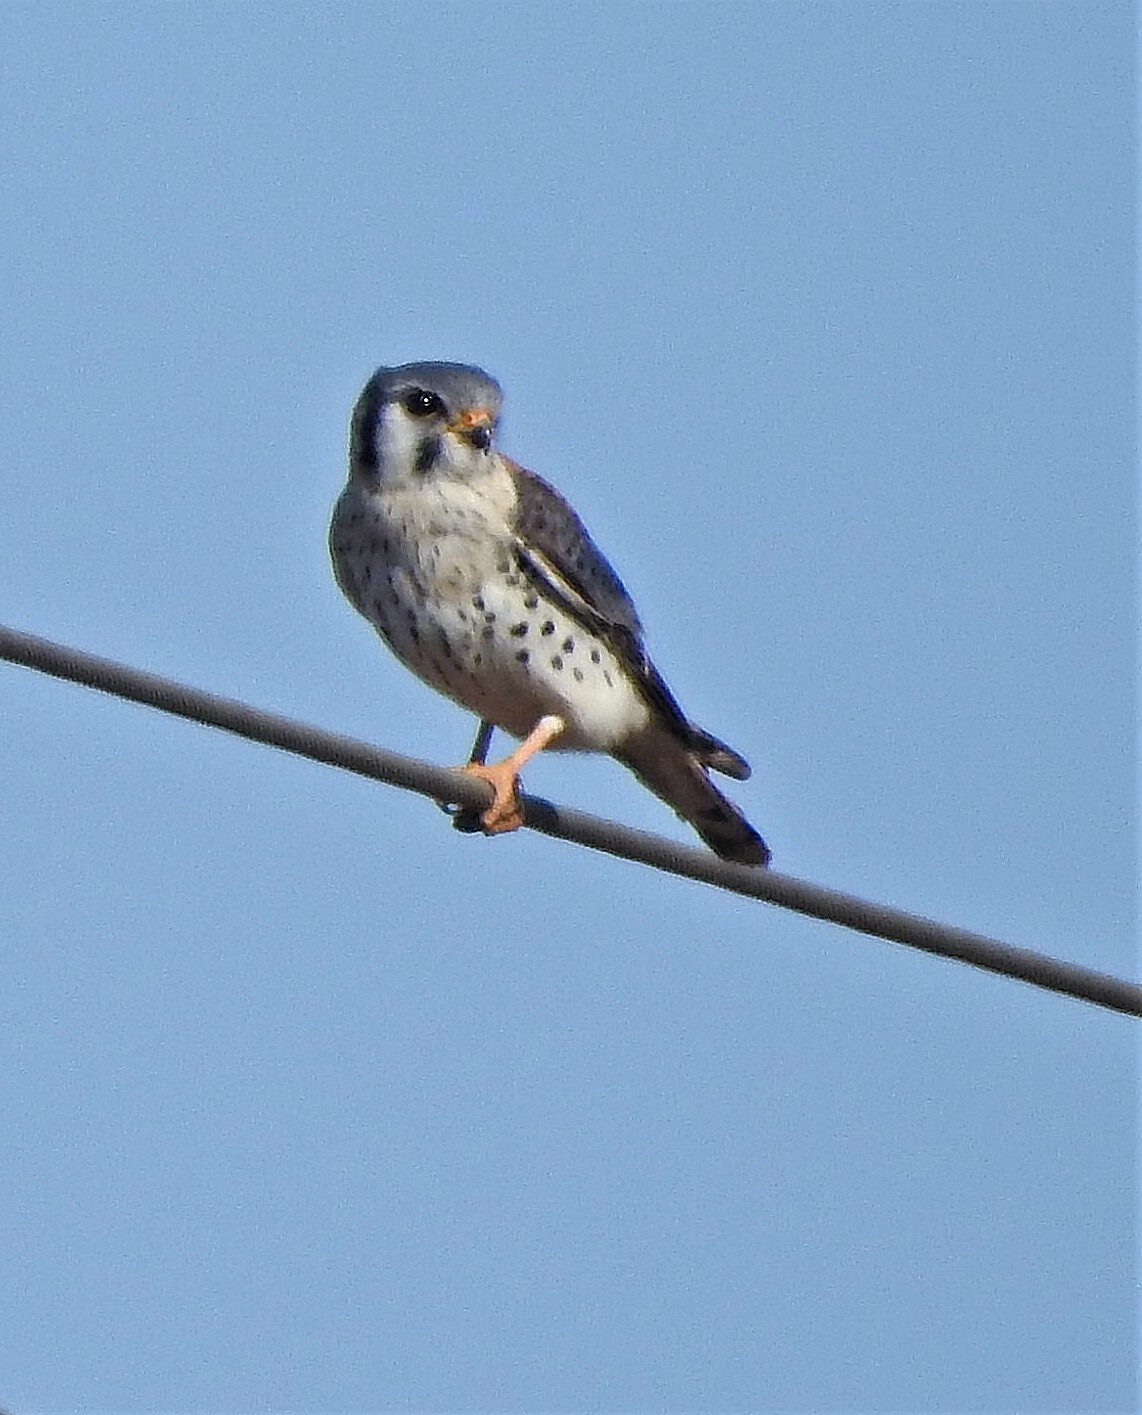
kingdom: Animalia
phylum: Chordata
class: Aves
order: Falconiformes
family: Falconidae
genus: Falco
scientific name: Falco sparverius
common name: American kestrel
